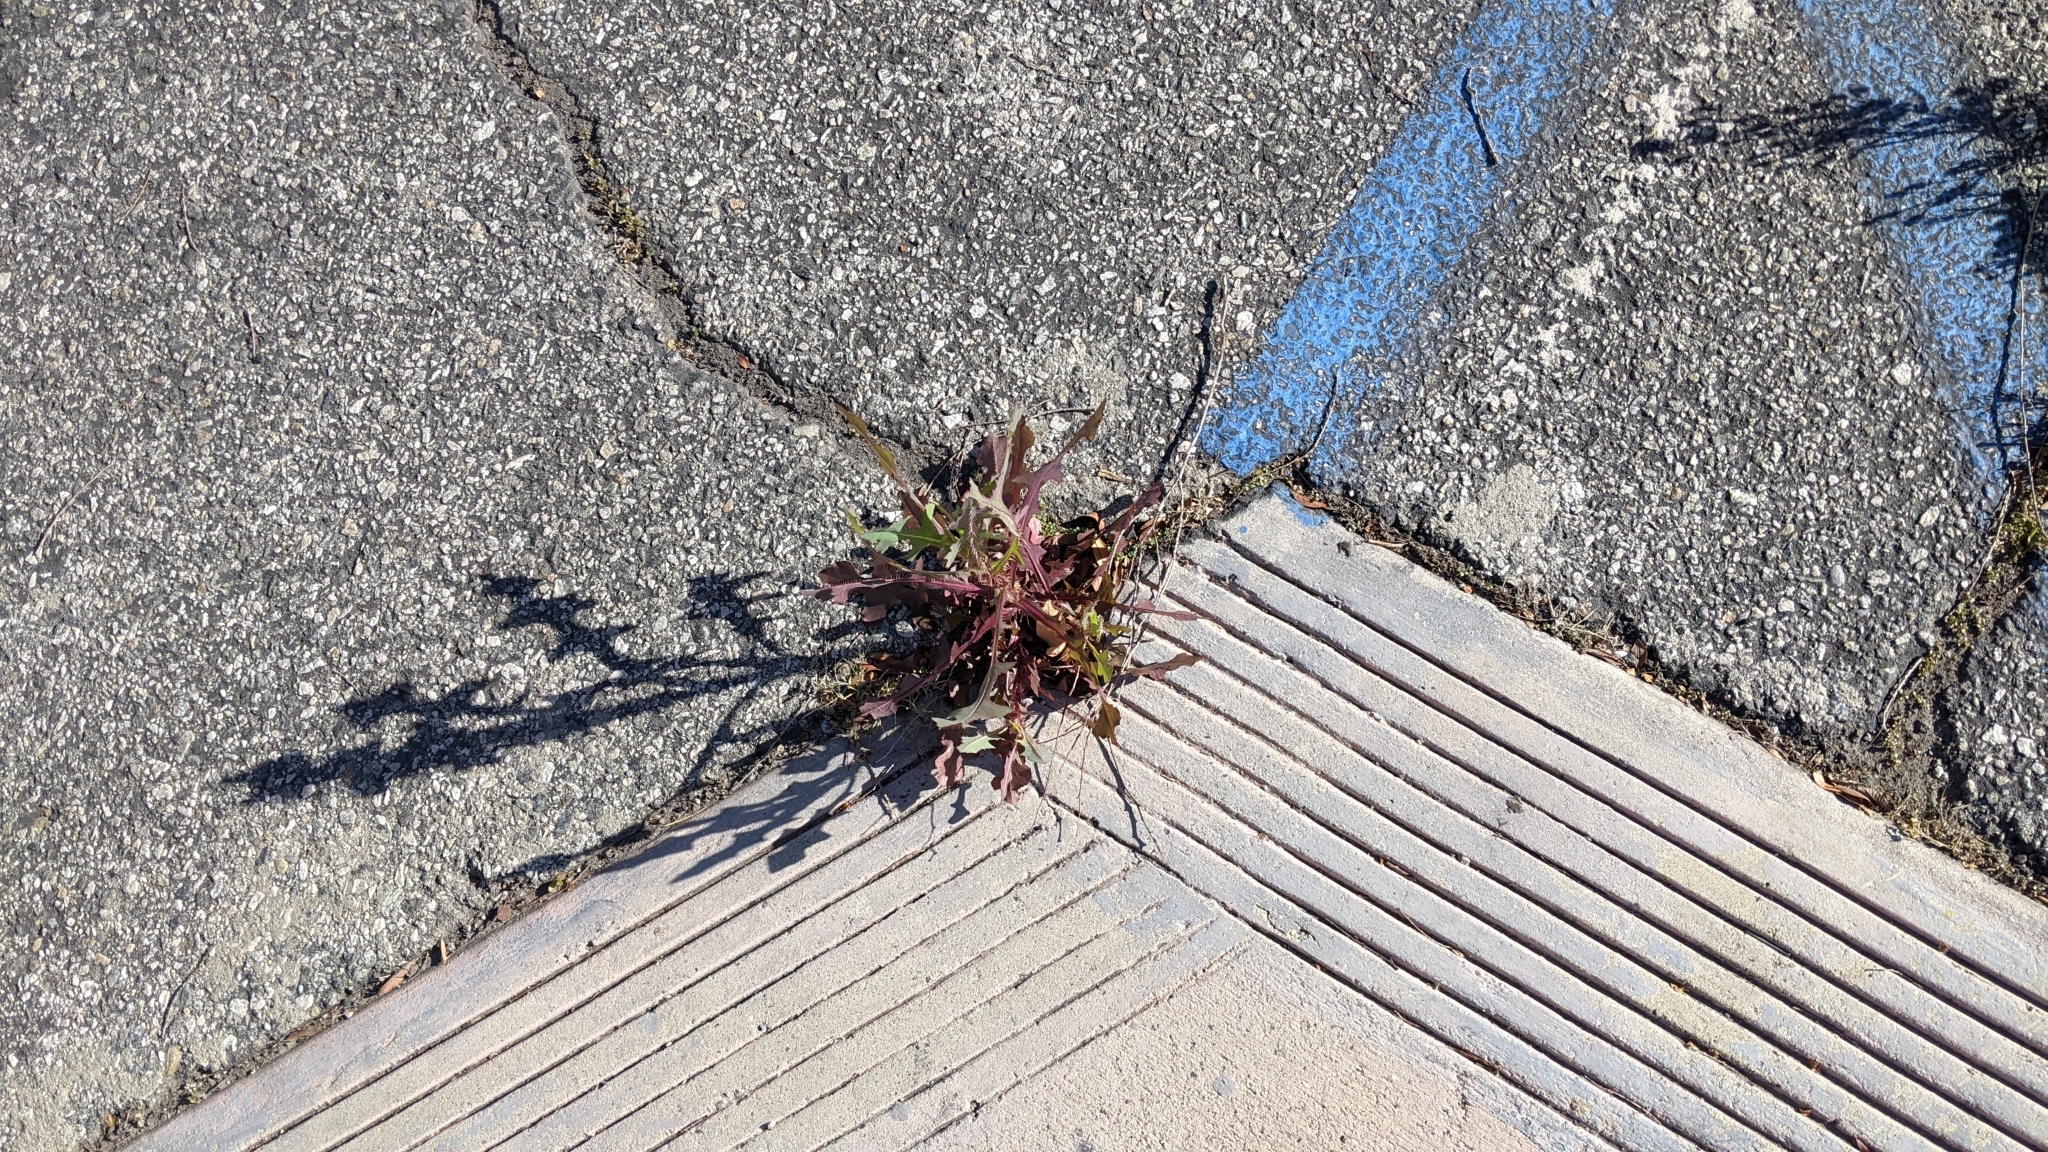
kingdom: Plantae
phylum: Tracheophyta
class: Magnoliopsida
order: Asterales
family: Asteraceae
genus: Lactuca
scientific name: Lactuca serriola
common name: Prickly lettuce
